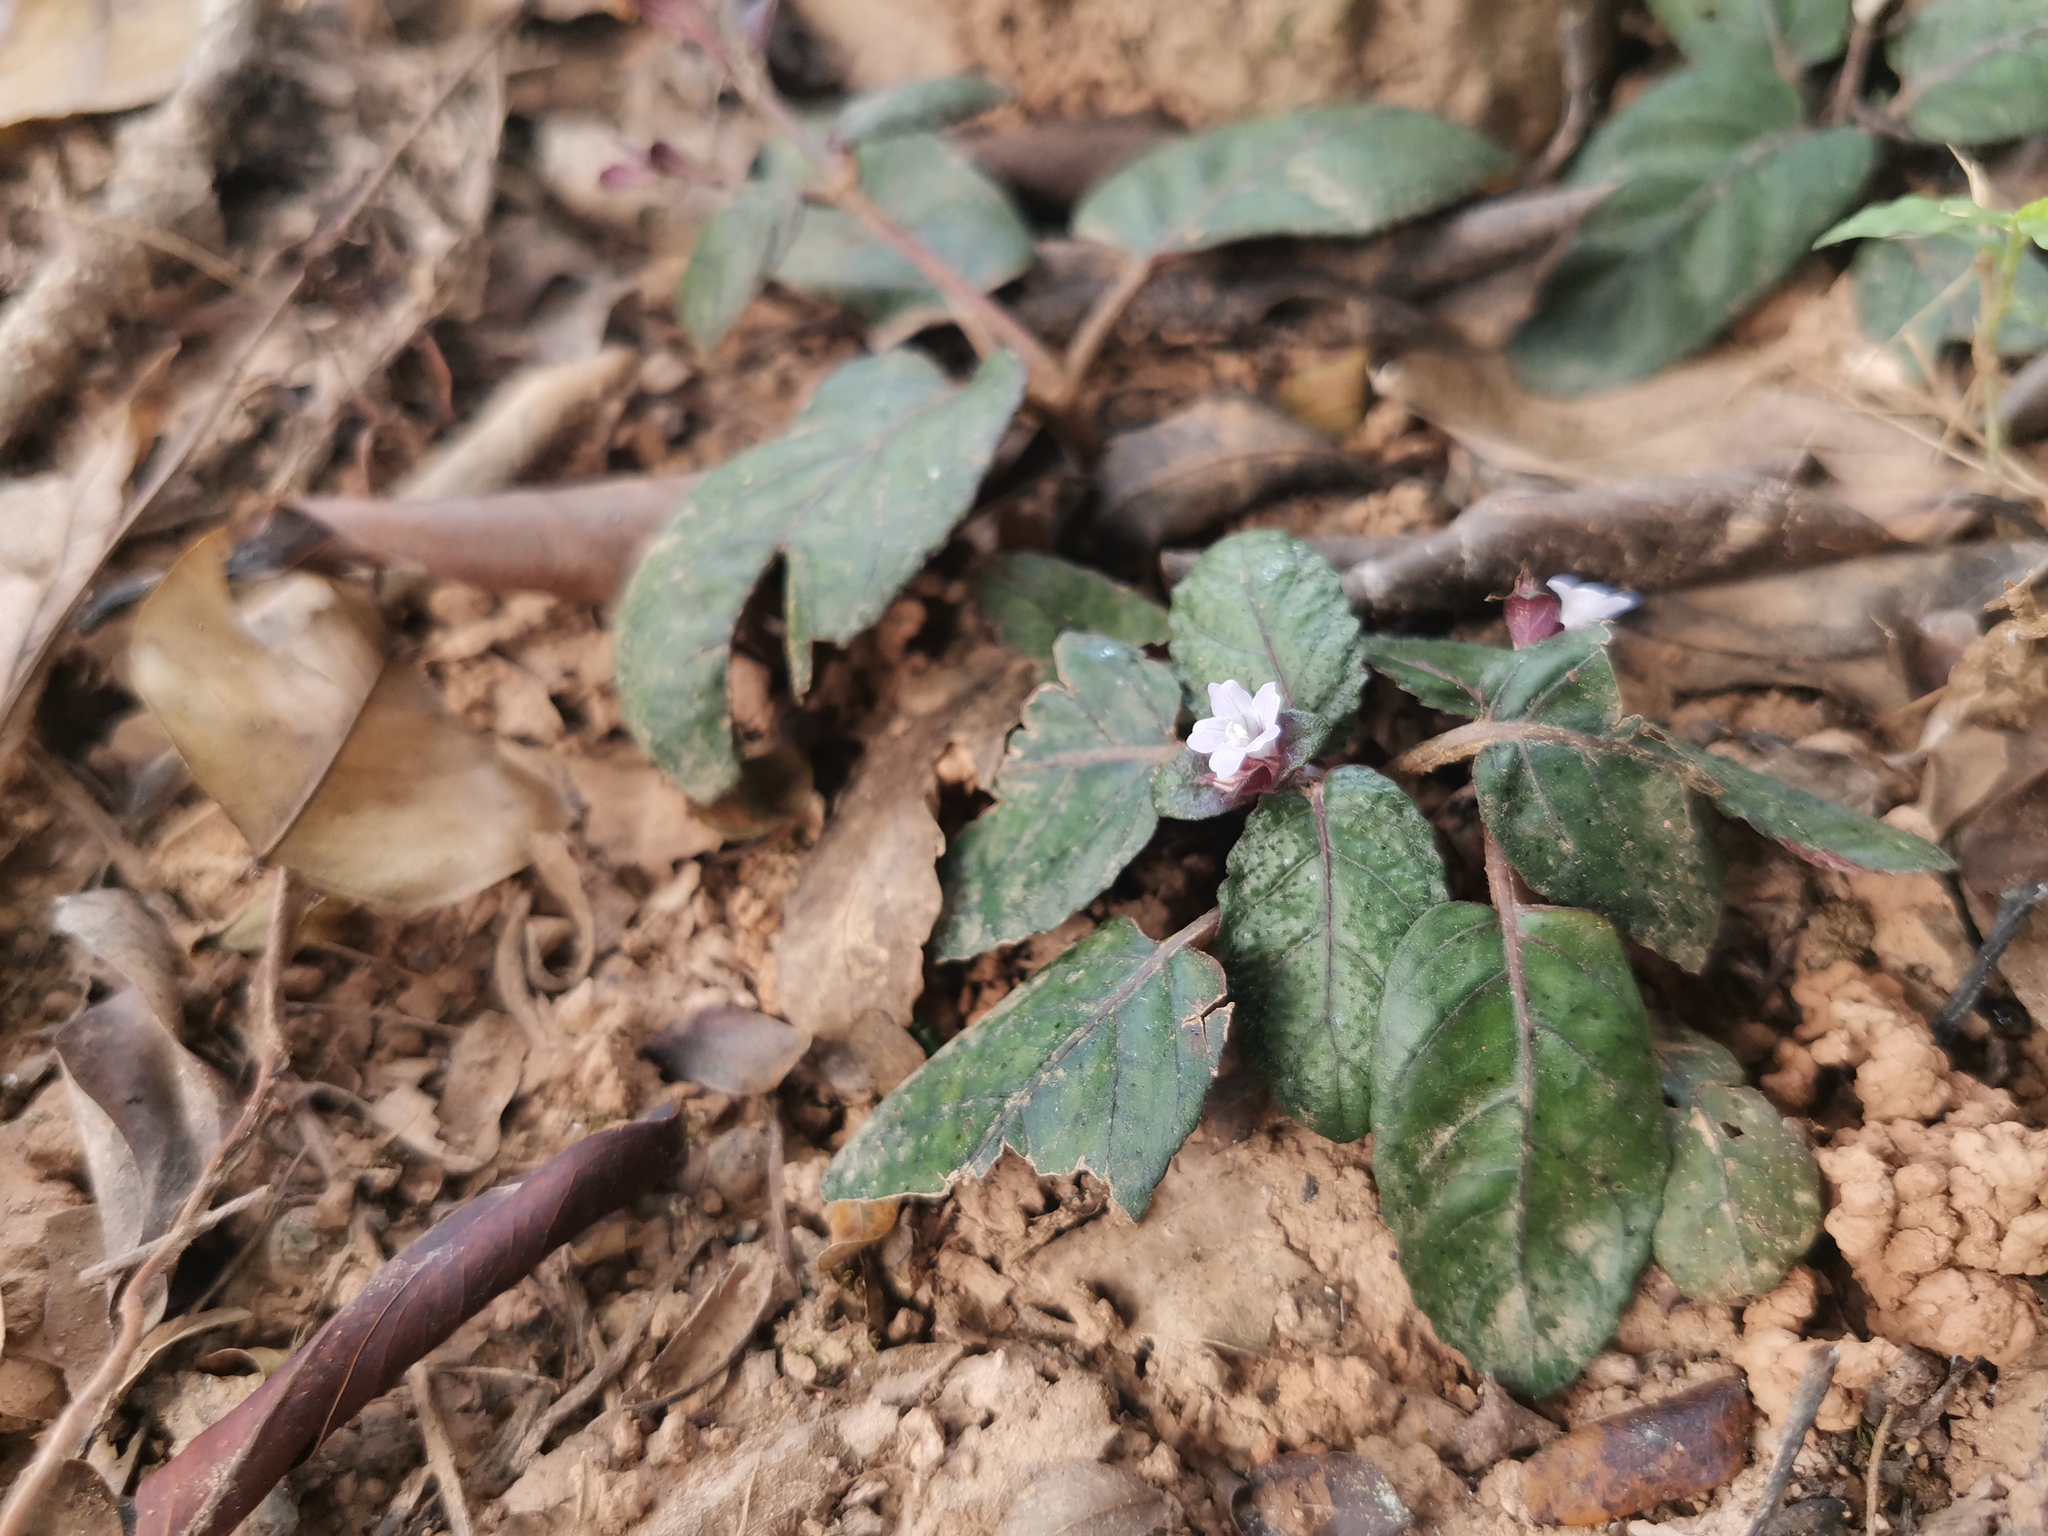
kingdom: Plantae
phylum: Tracheophyta
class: Magnoliopsida
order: Lamiales
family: Acanthaceae
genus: Strobilanthes
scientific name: Strobilanthes reptans
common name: Acanthaceae
